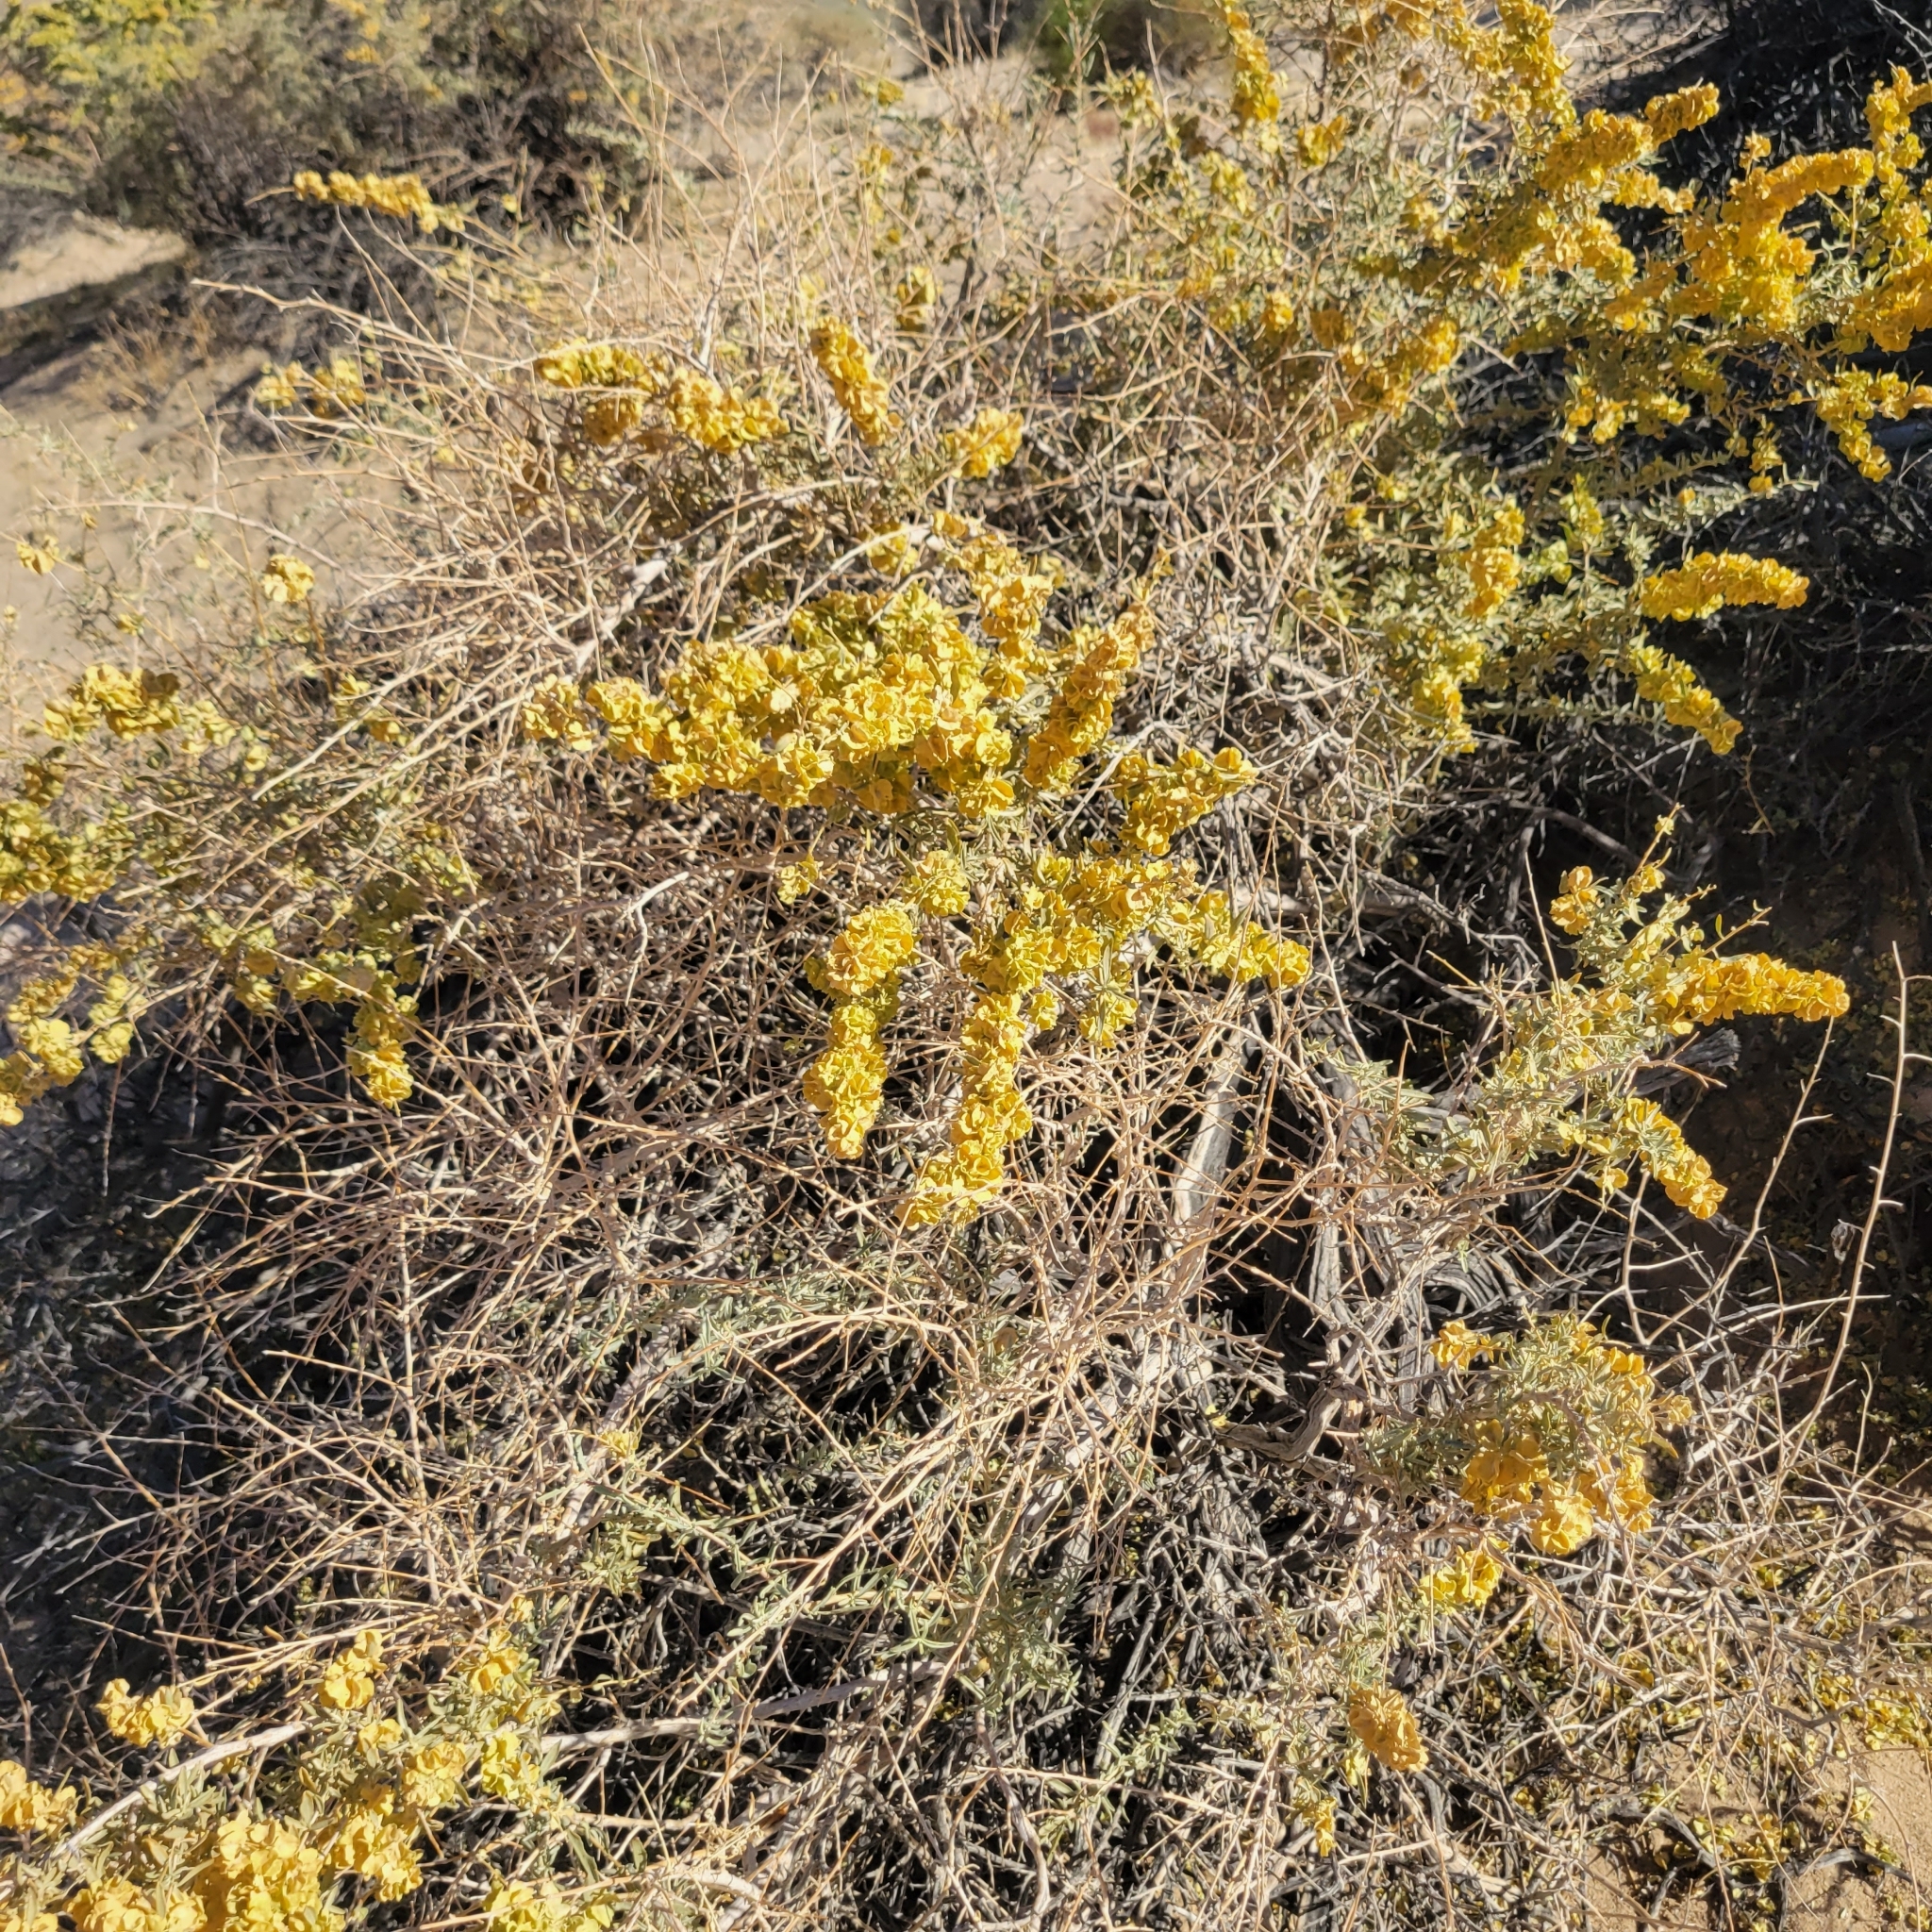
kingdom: Plantae
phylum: Tracheophyta
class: Magnoliopsida
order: Caryophyllales
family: Amaranthaceae
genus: Atriplex
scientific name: Atriplex canescens
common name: Four-wing saltbush
